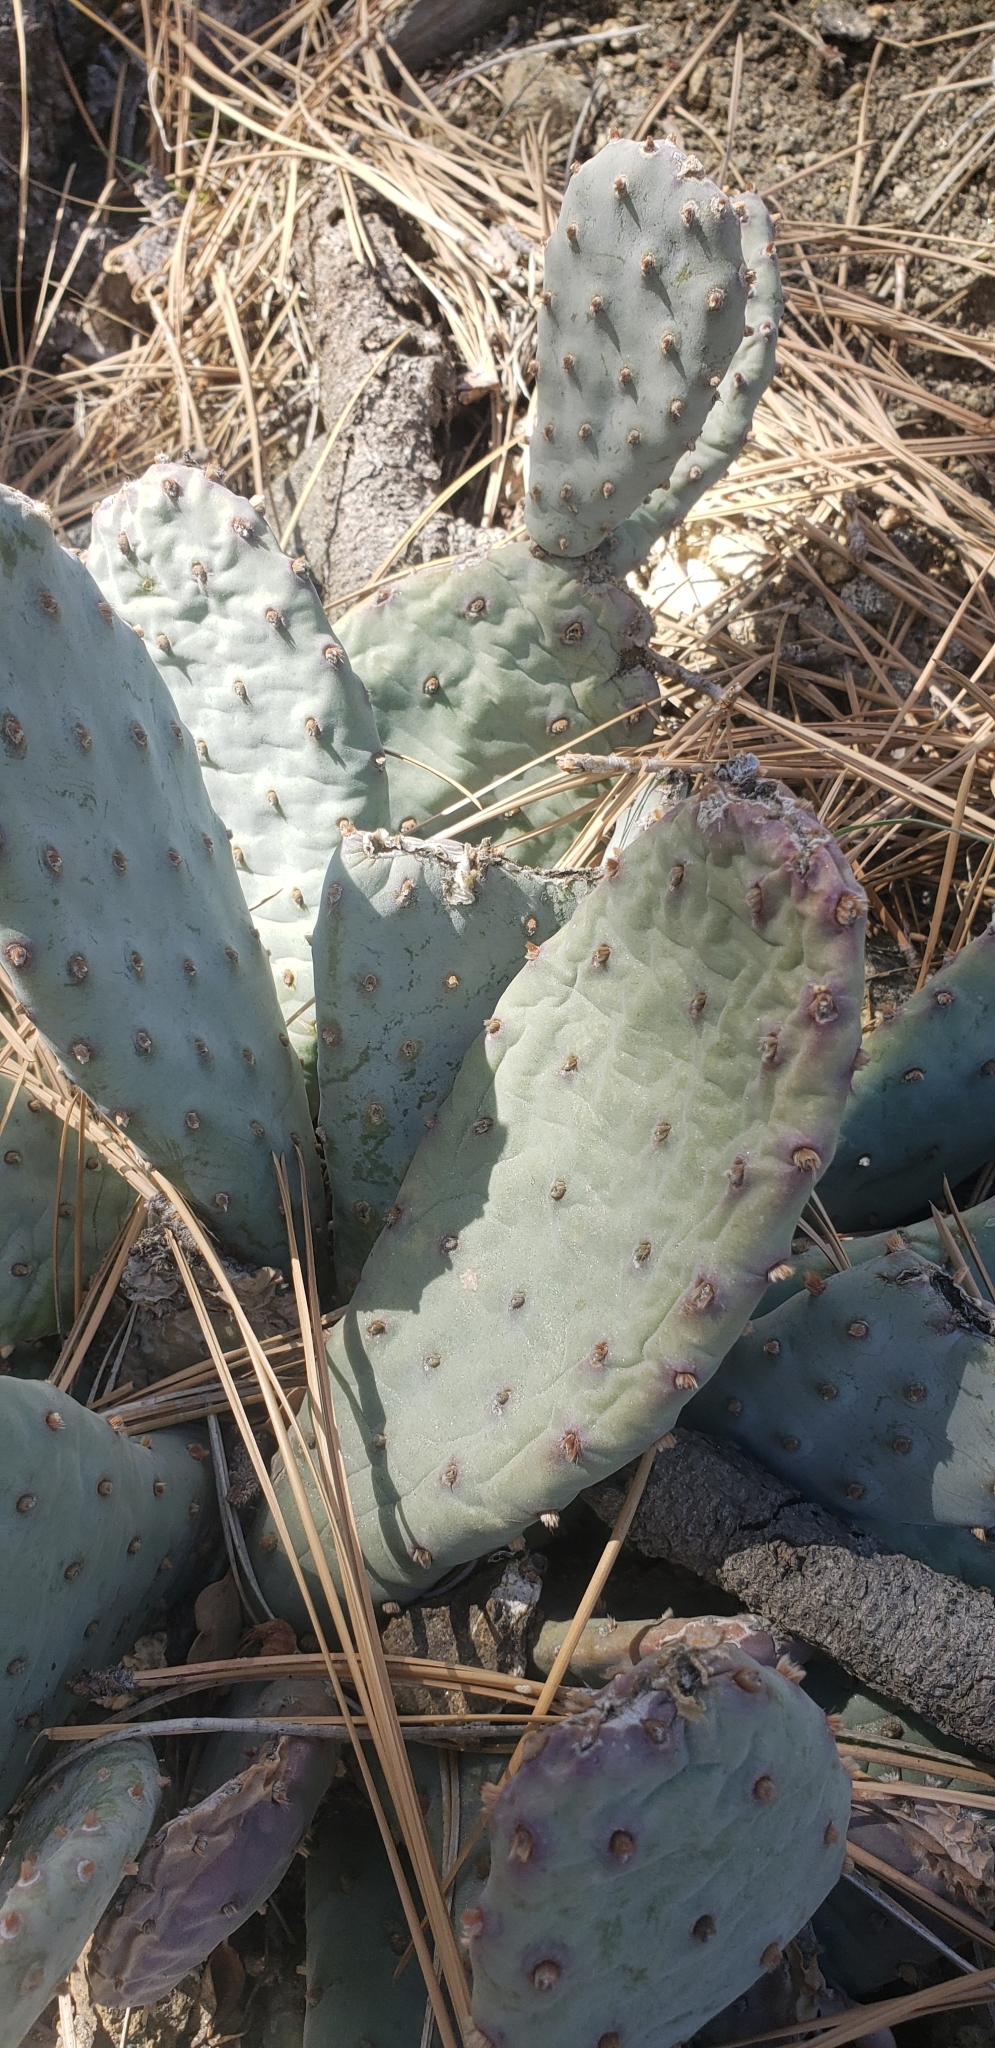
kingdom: Plantae
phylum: Tracheophyta
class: Magnoliopsida
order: Caryophyllales
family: Cactaceae
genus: Opuntia
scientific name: Opuntia basilaris
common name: Beavertail prickly-pear
